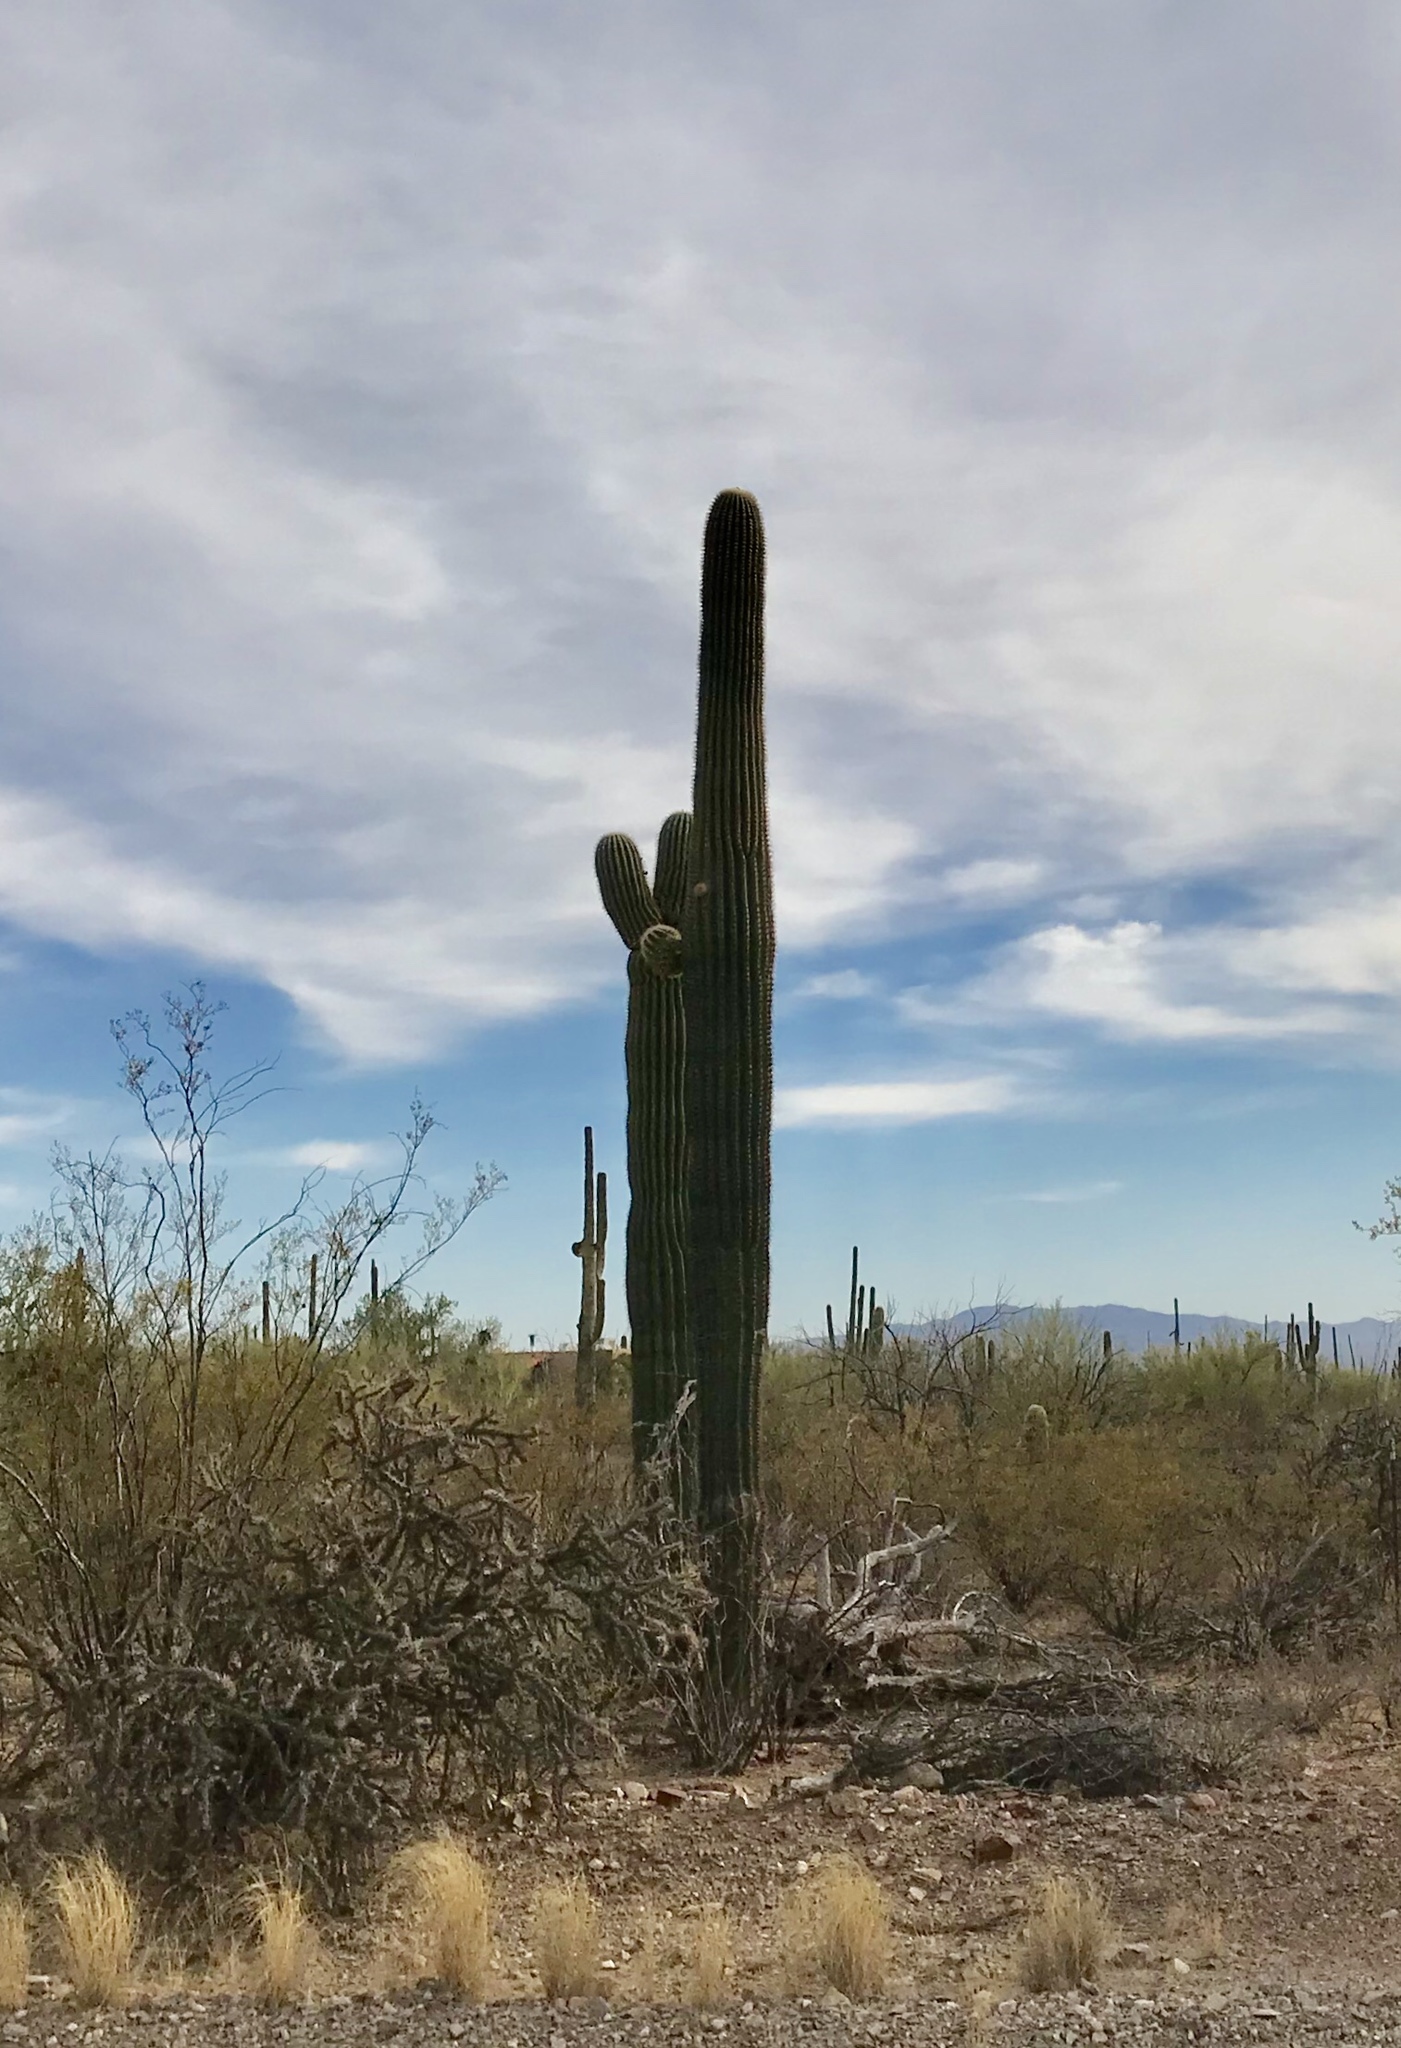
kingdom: Plantae
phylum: Tracheophyta
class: Magnoliopsida
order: Caryophyllales
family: Cactaceae
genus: Carnegiea
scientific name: Carnegiea gigantea
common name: Saguaro
